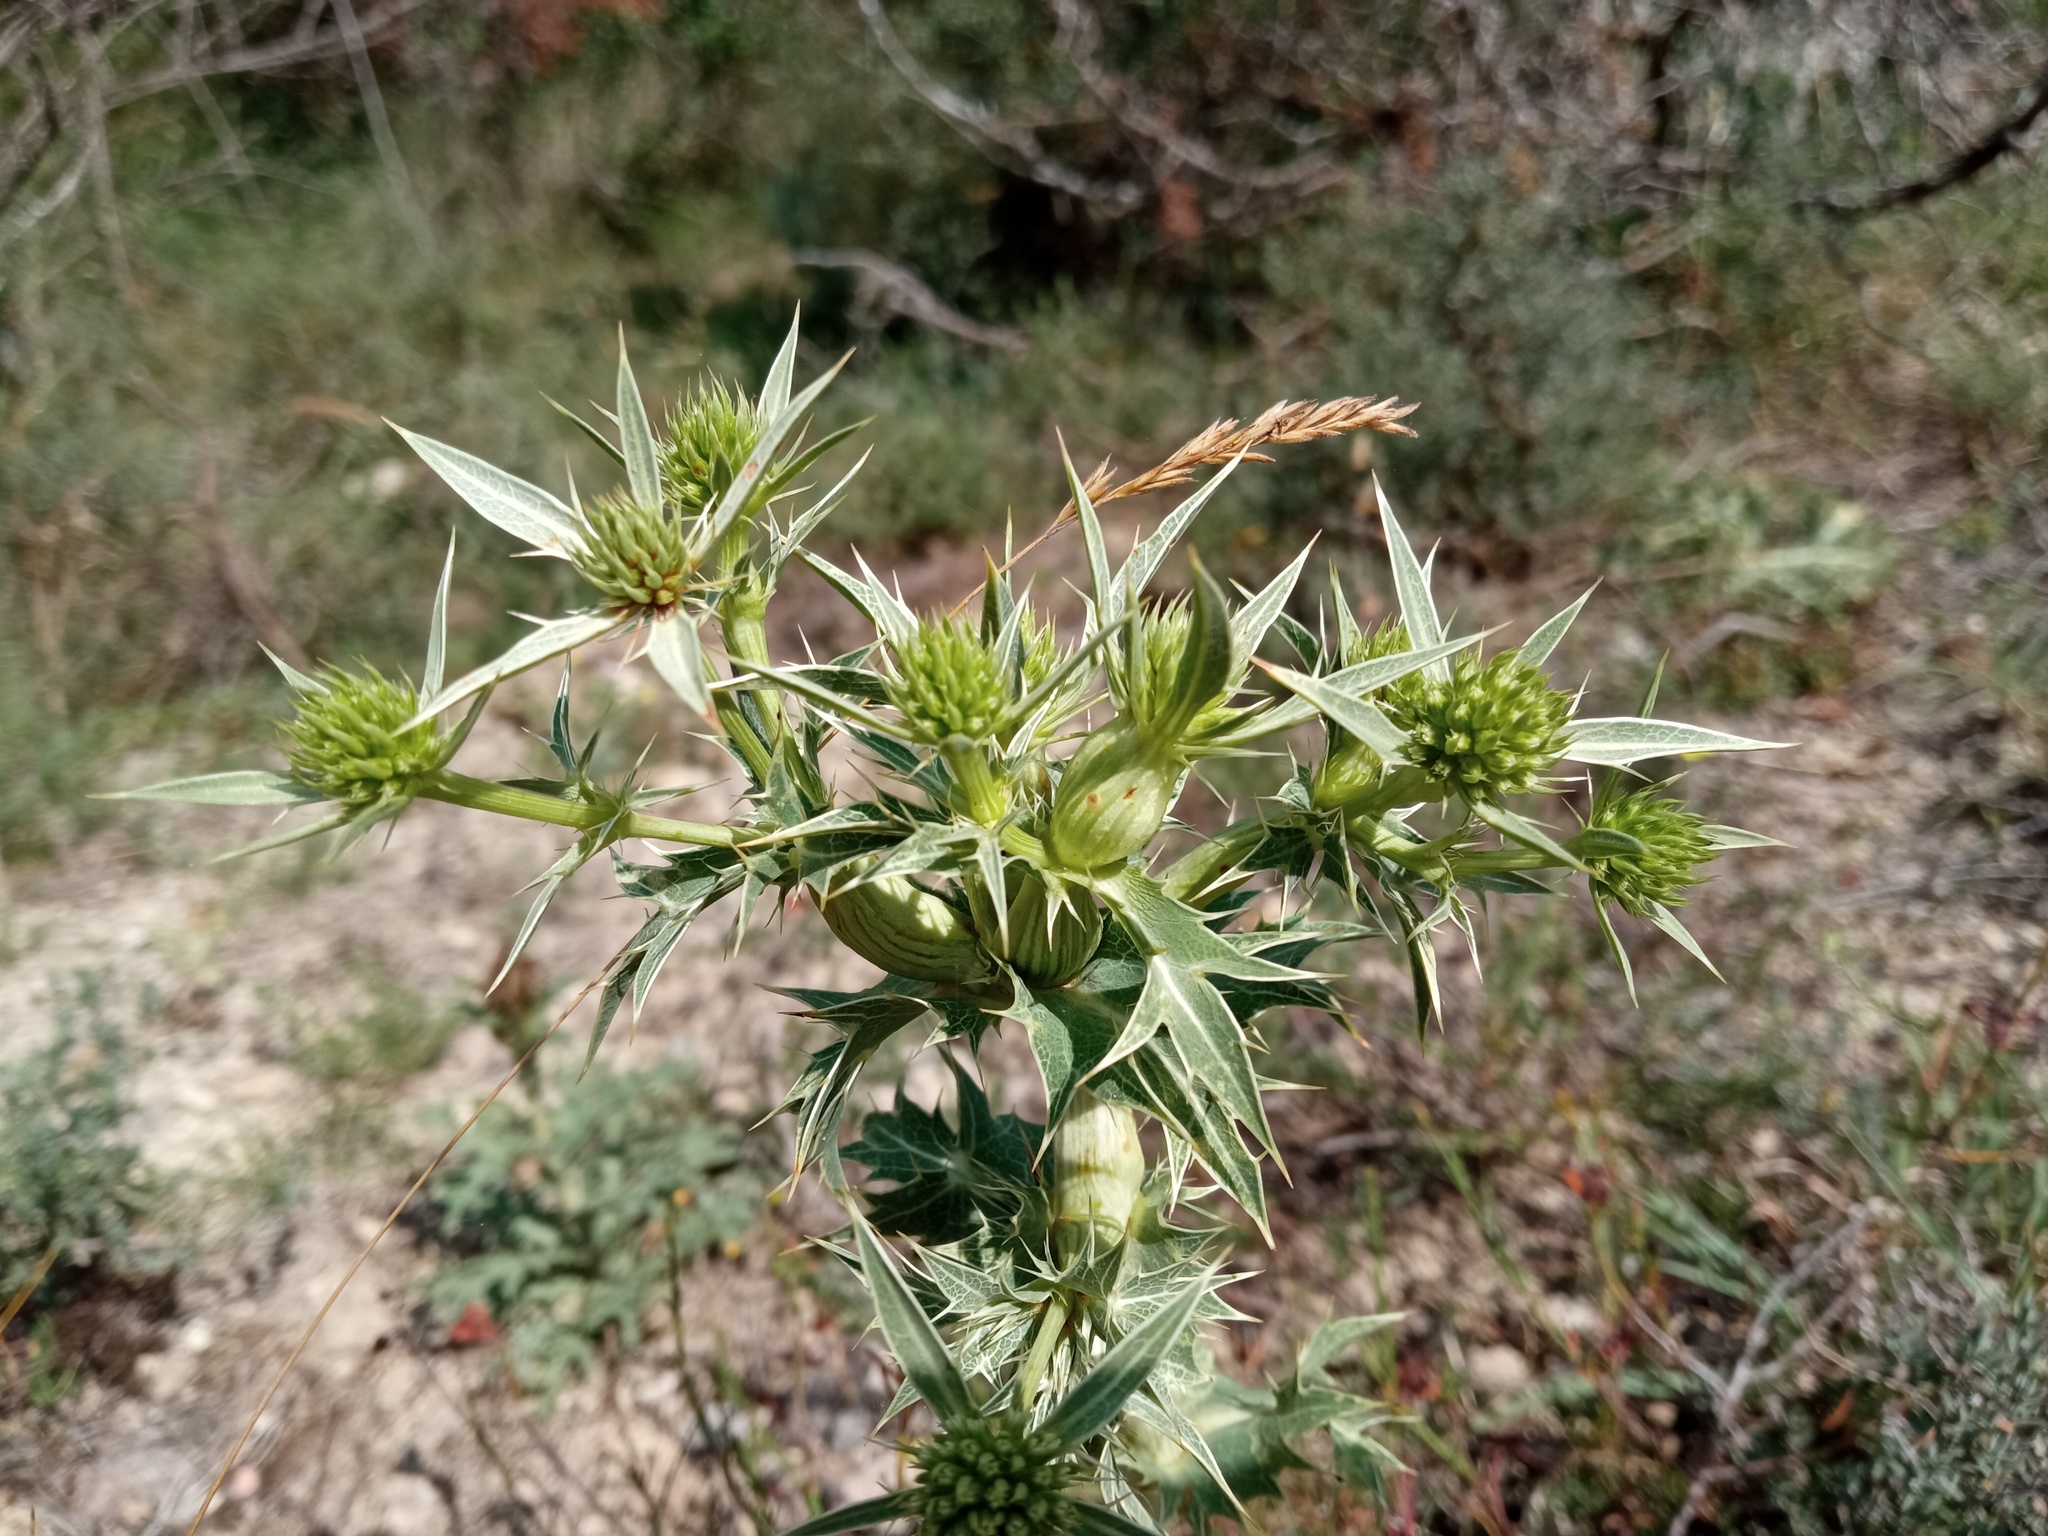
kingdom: Plantae
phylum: Tracheophyta
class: Magnoliopsida
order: Apiales
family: Apiaceae
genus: Eryngium
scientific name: Eryngium campestre
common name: Field eryngo
